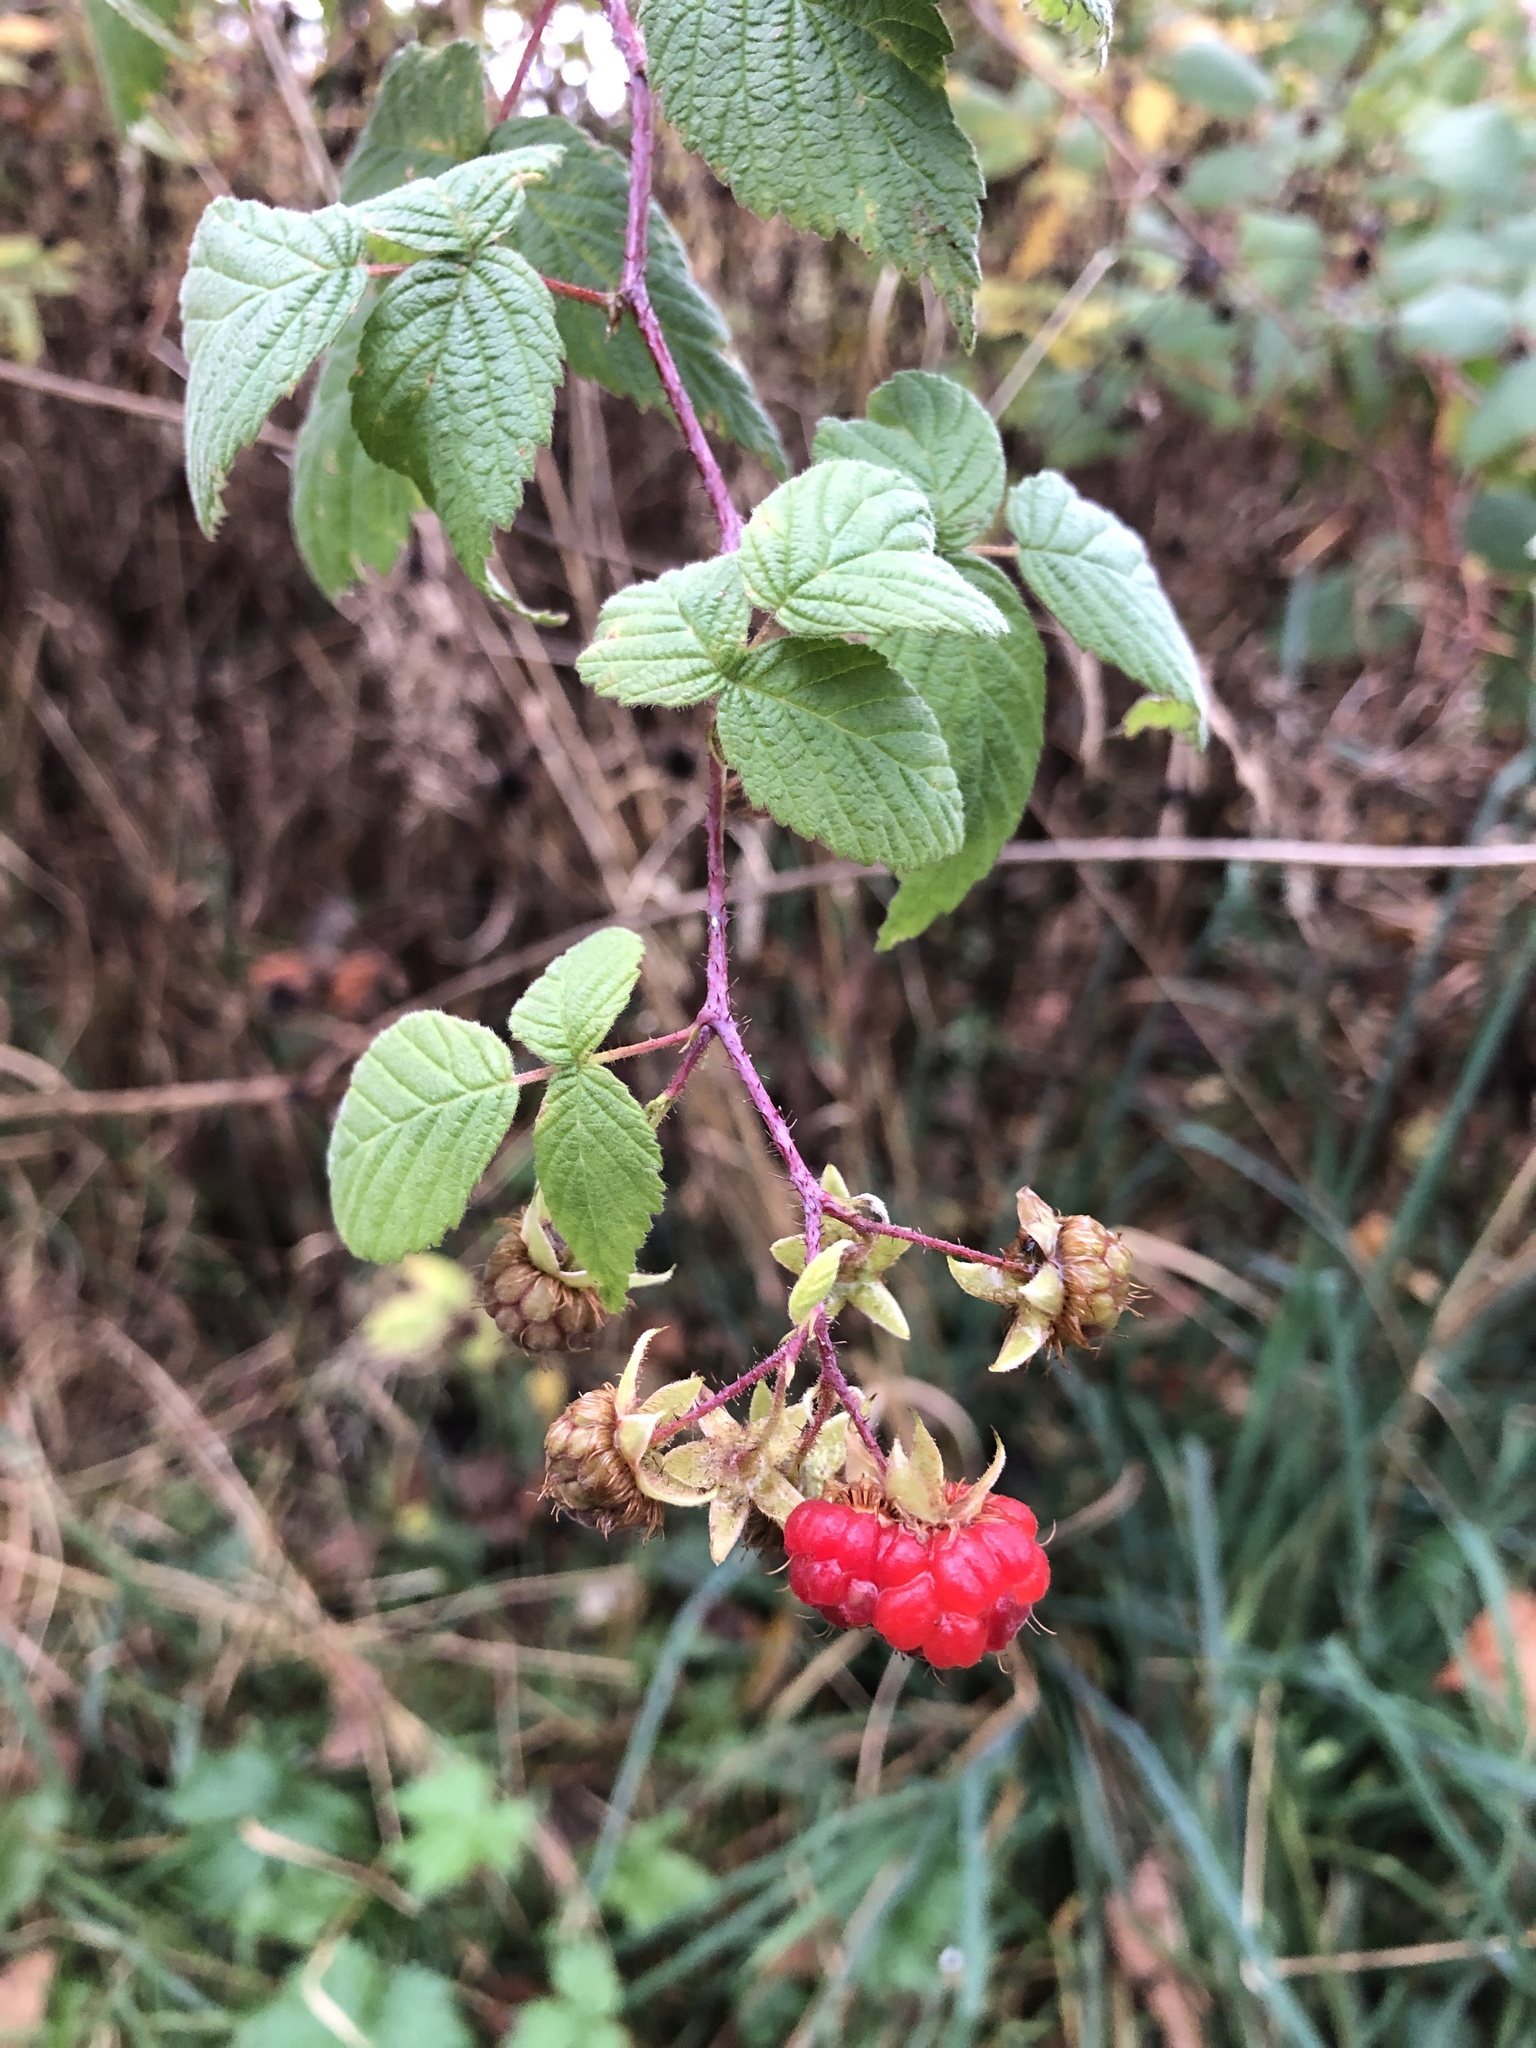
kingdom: Plantae
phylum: Tracheophyta
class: Magnoliopsida
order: Rosales
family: Rosaceae
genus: Rubus
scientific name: Rubus idaeus
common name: Raspberry
